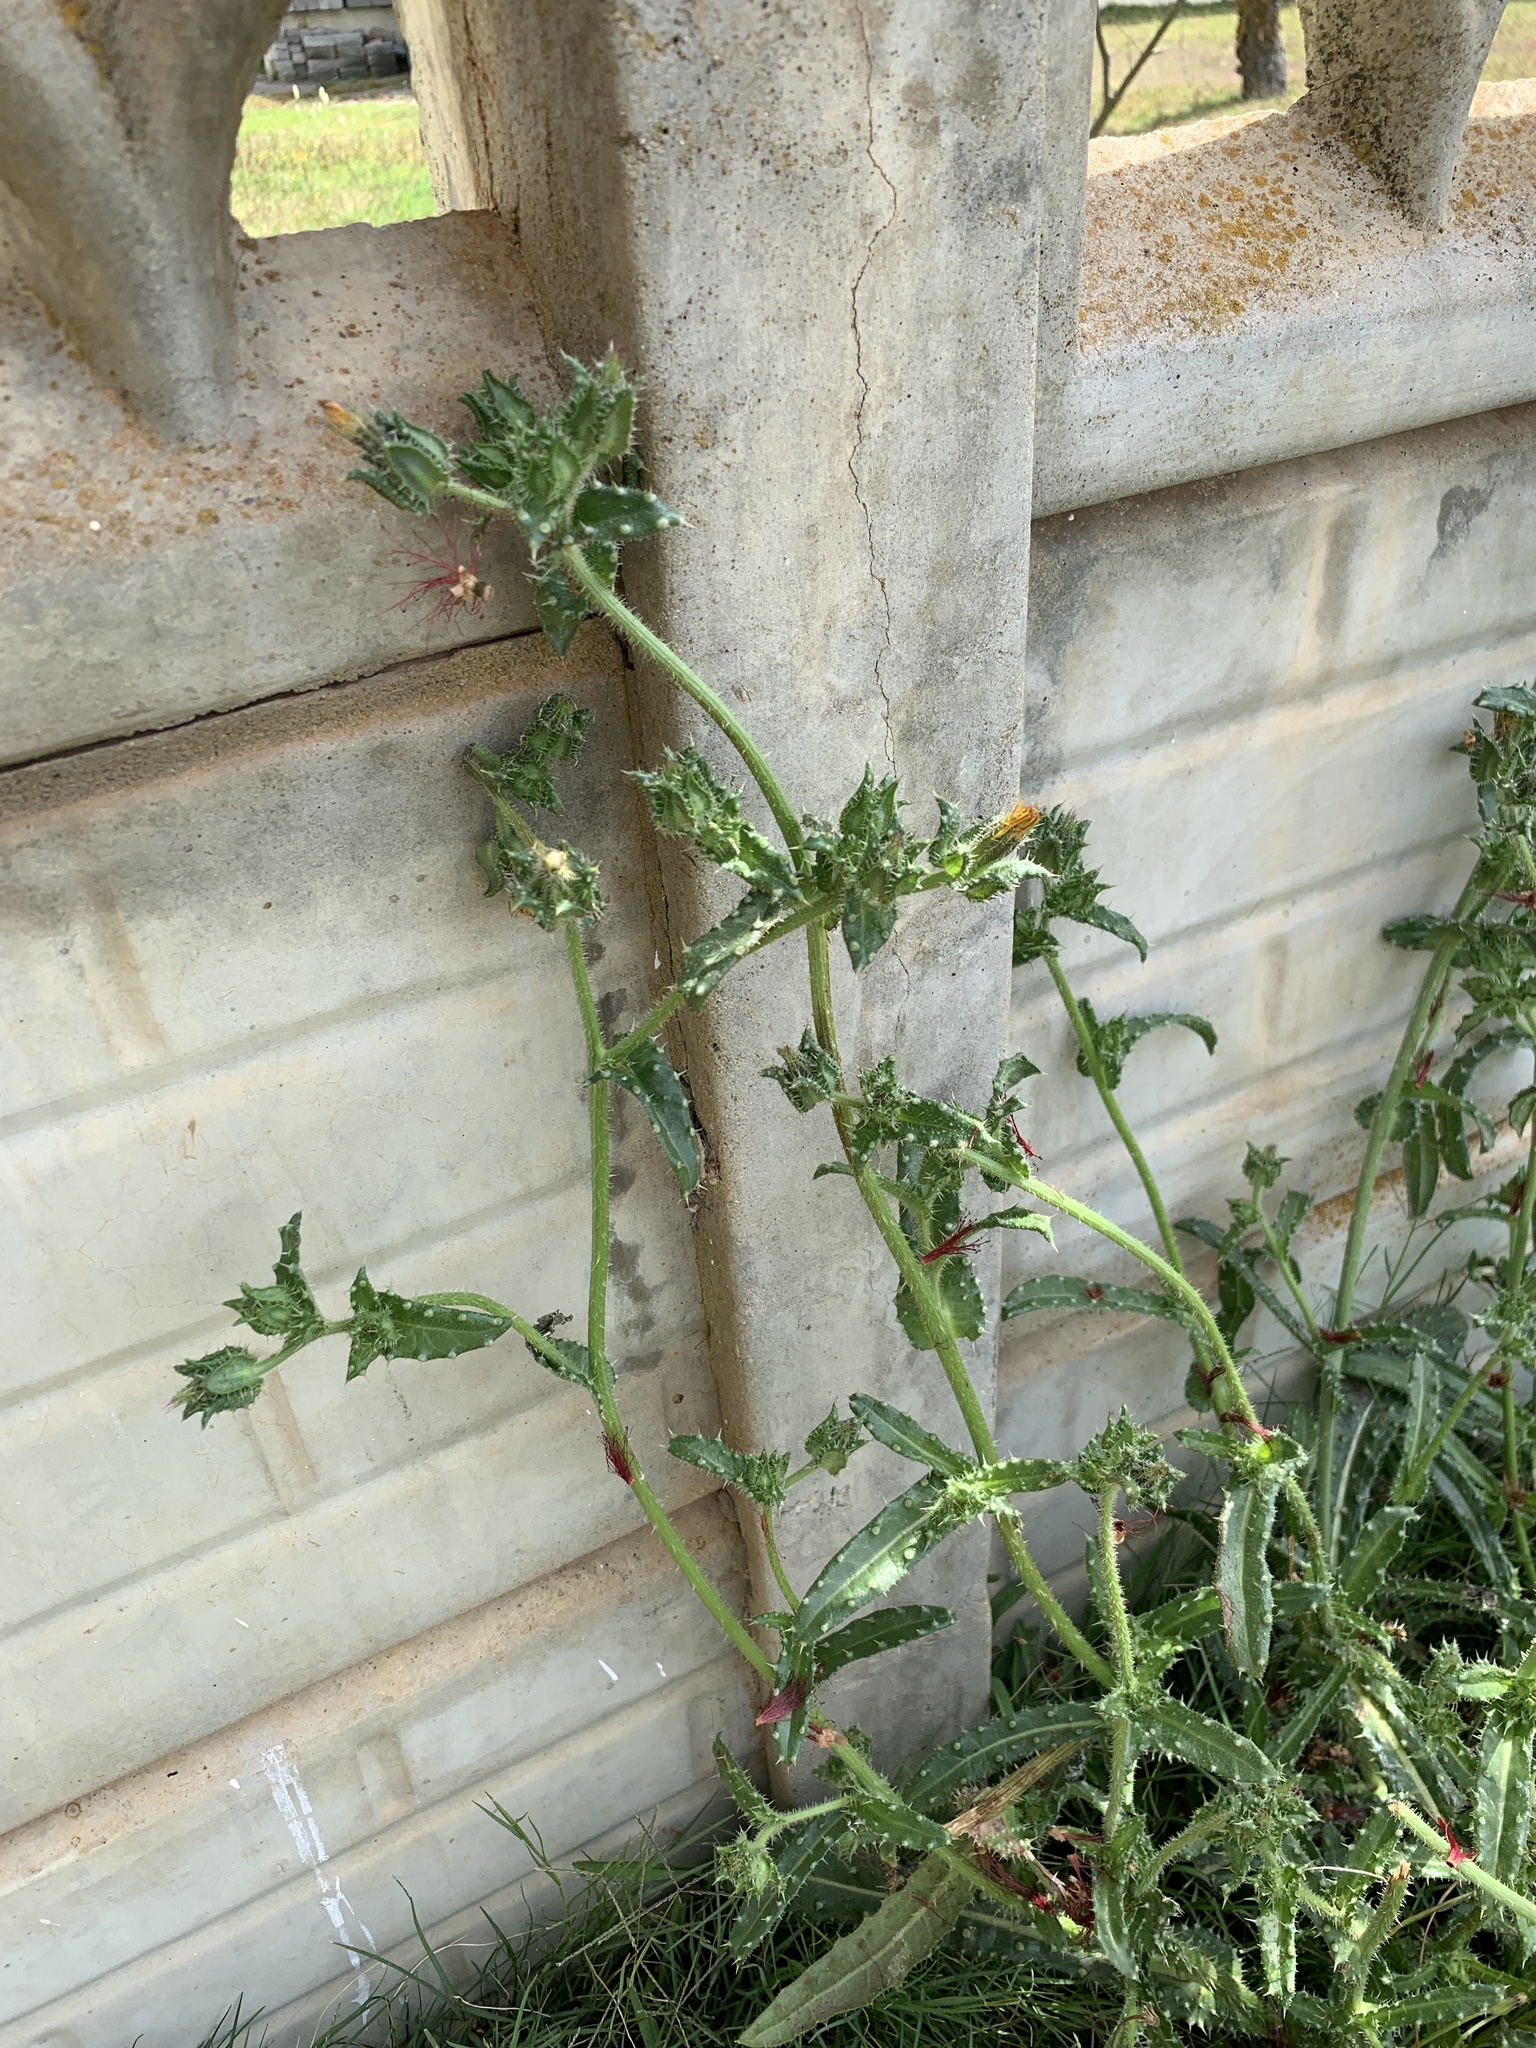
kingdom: Plantae
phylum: Tracheophyta
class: Magnoliopsida
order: Asterales
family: Asteraceae
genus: Helminthotheca
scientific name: Helminthotheca echioides
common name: Ox-tongue
